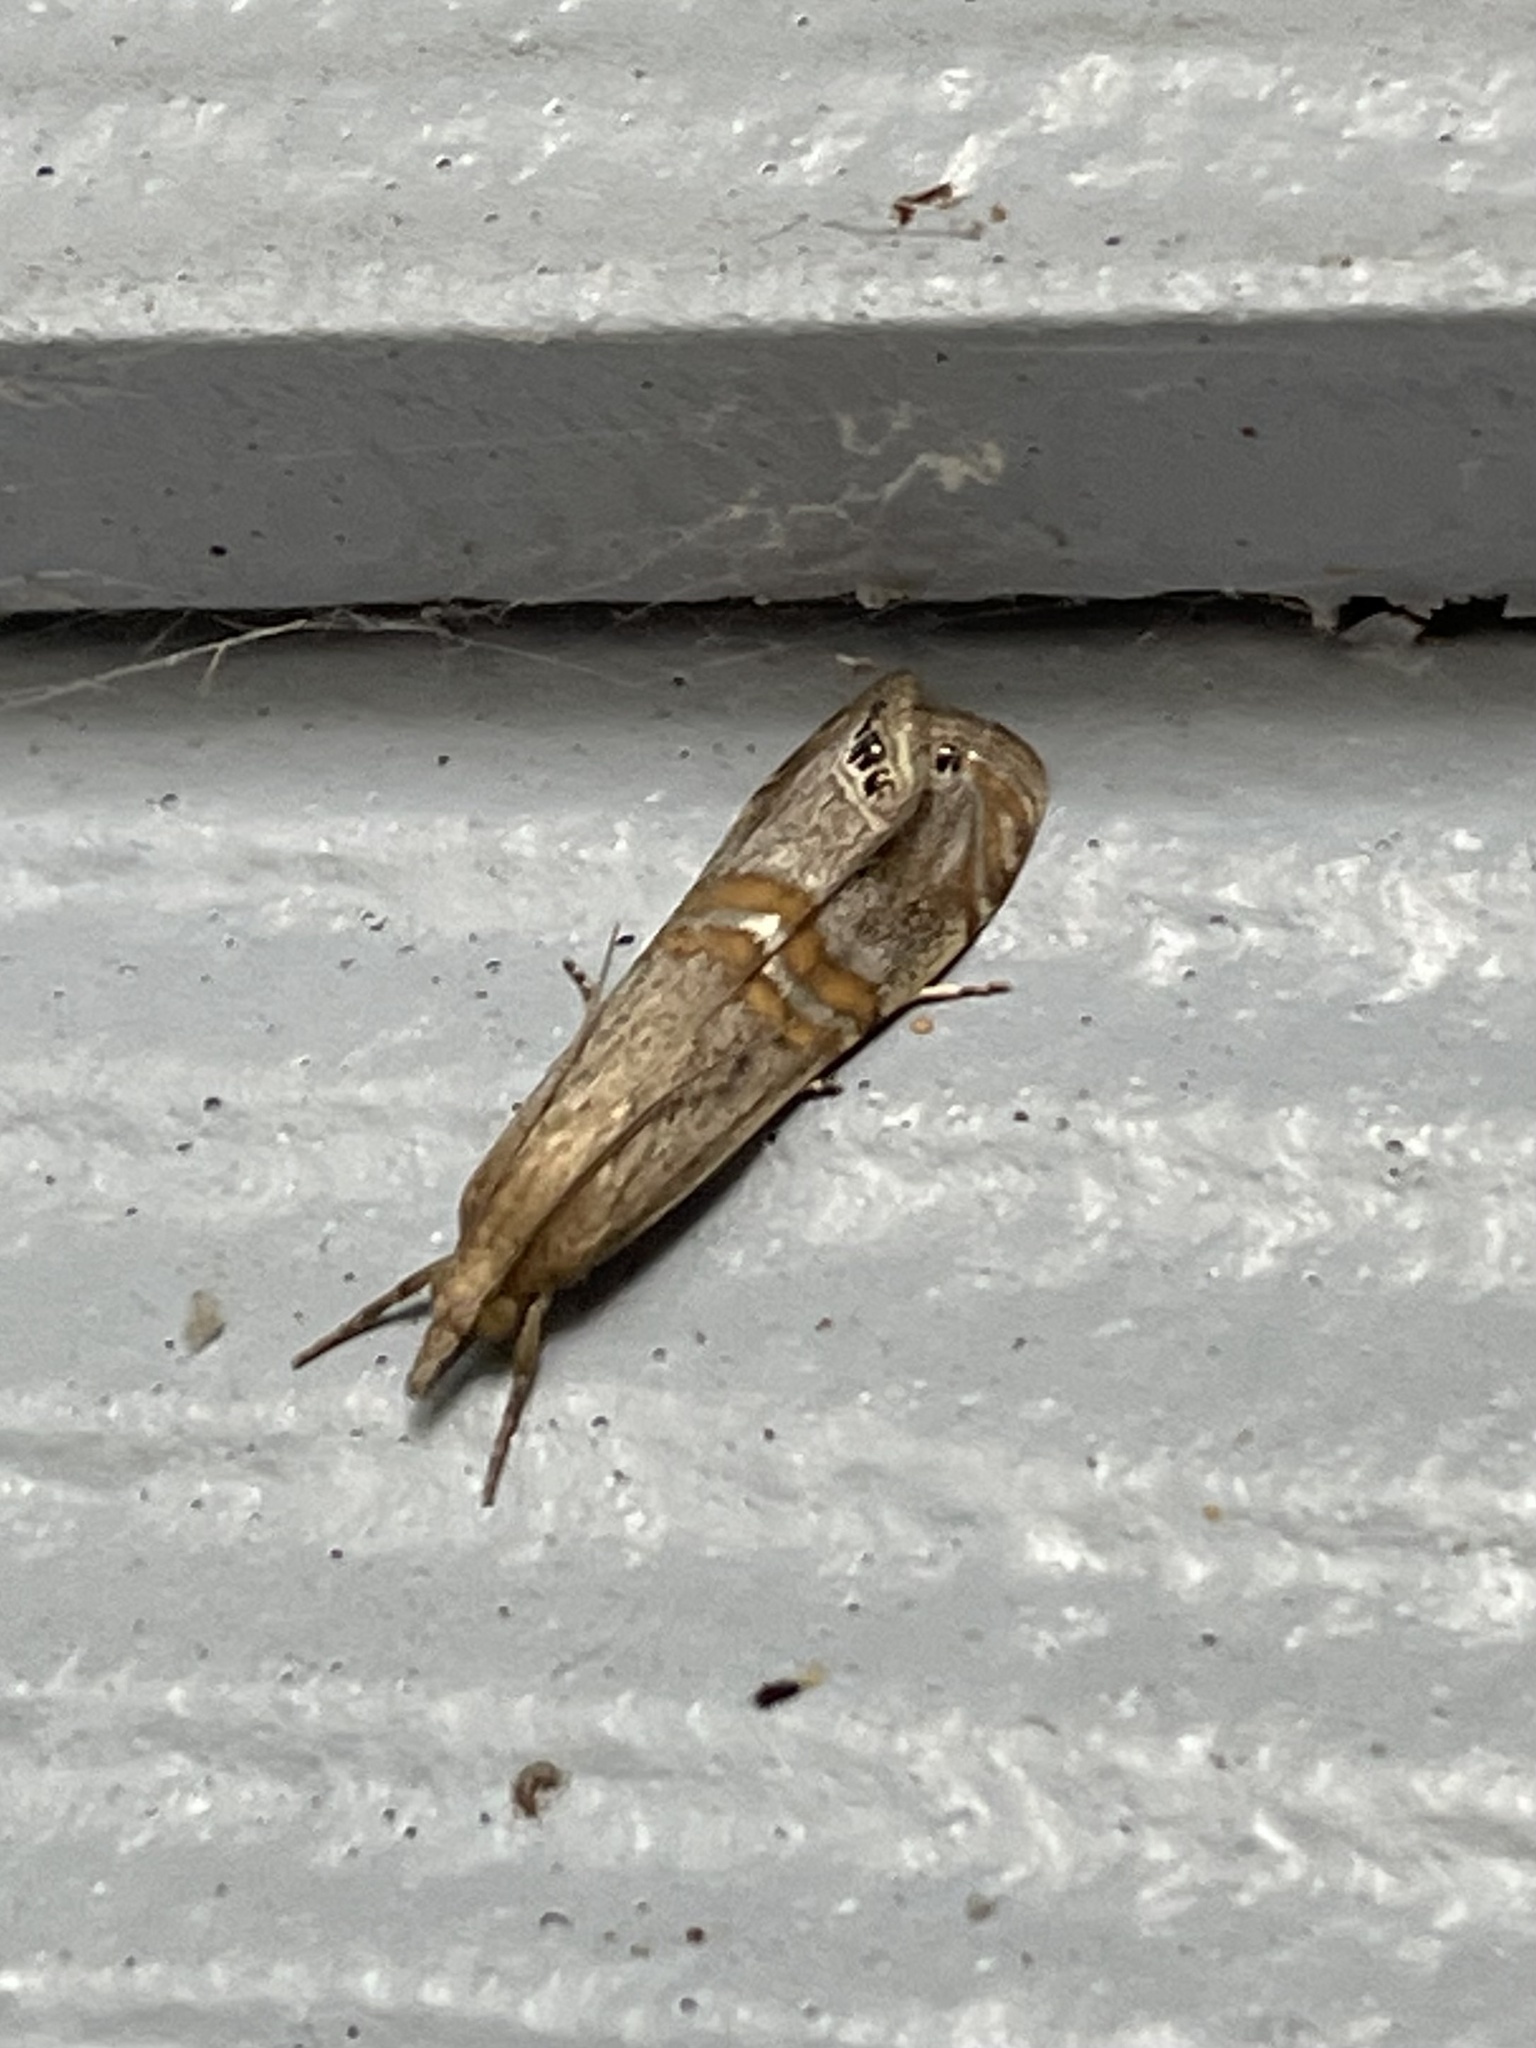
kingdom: Animalia
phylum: Arthropoda
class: Insecta
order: Lepidoptera
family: Crambidae
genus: Euchromius
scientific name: Euchromius ocellea
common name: Necklace veneer moth
